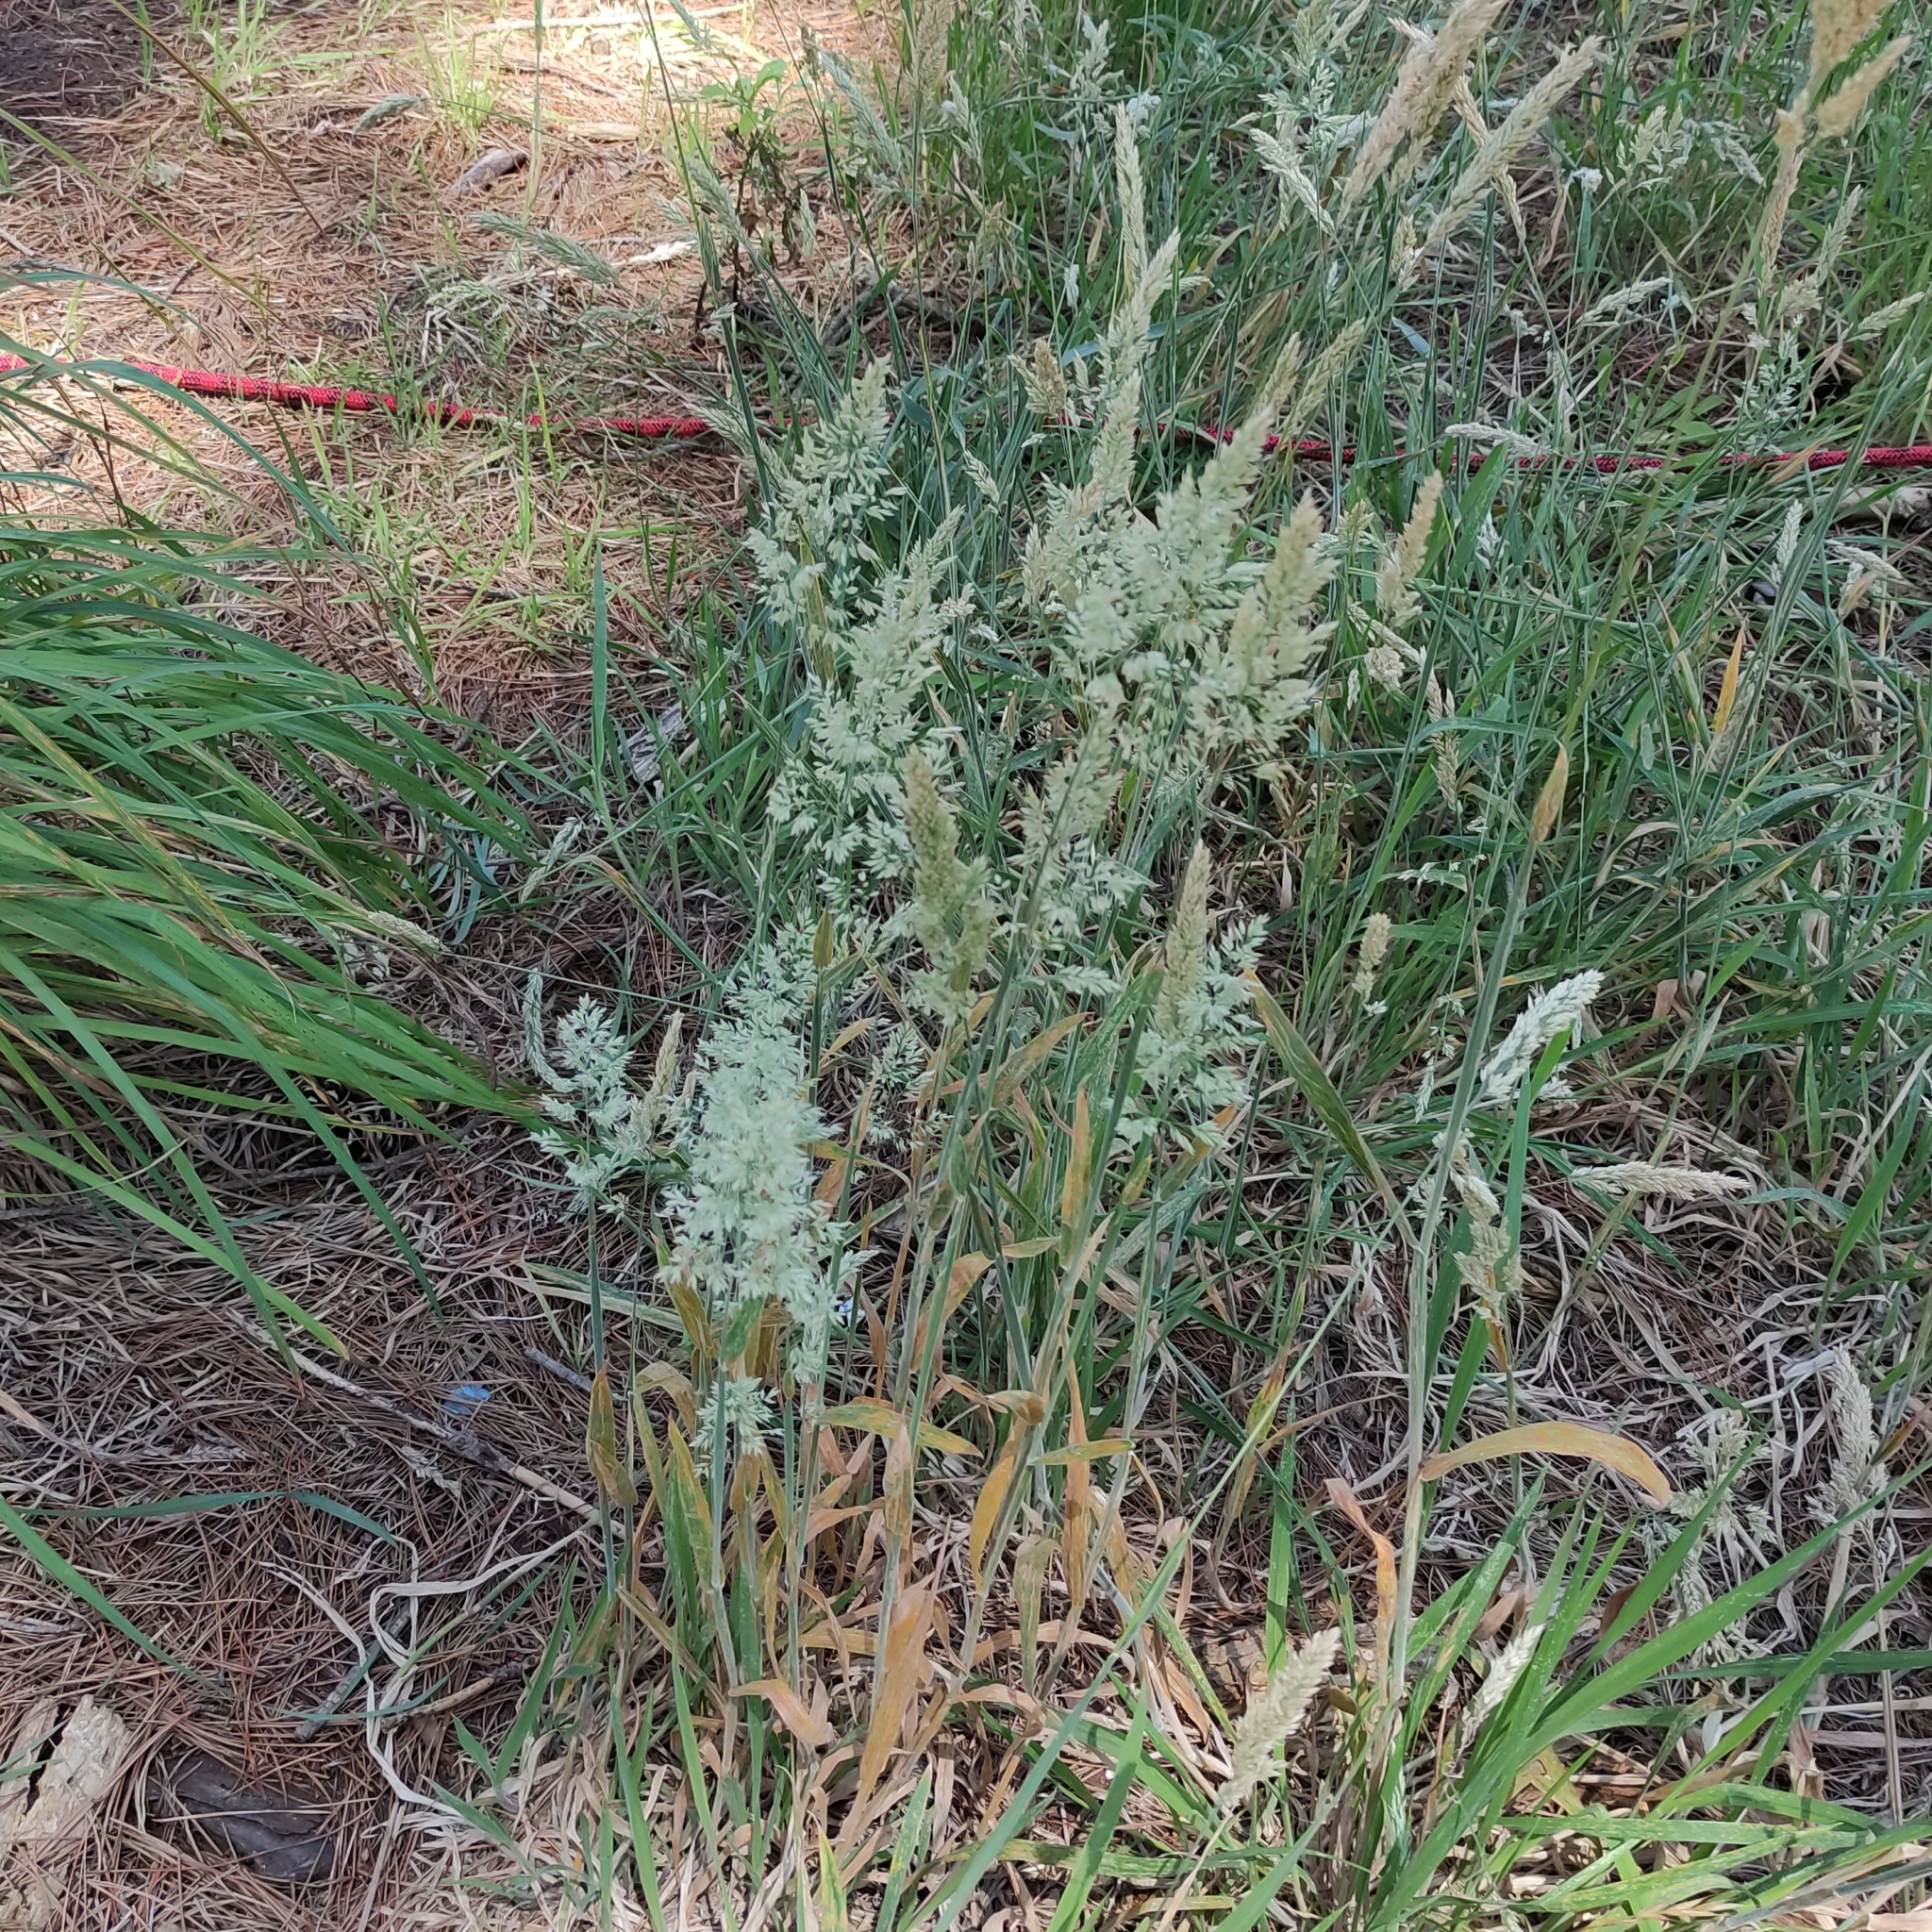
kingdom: Plantae
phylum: Tracheophyta
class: Liliopsida
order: Poales
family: Poaceae
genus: Holcus
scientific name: Holcus lanatus
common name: Yorkshire-fog
